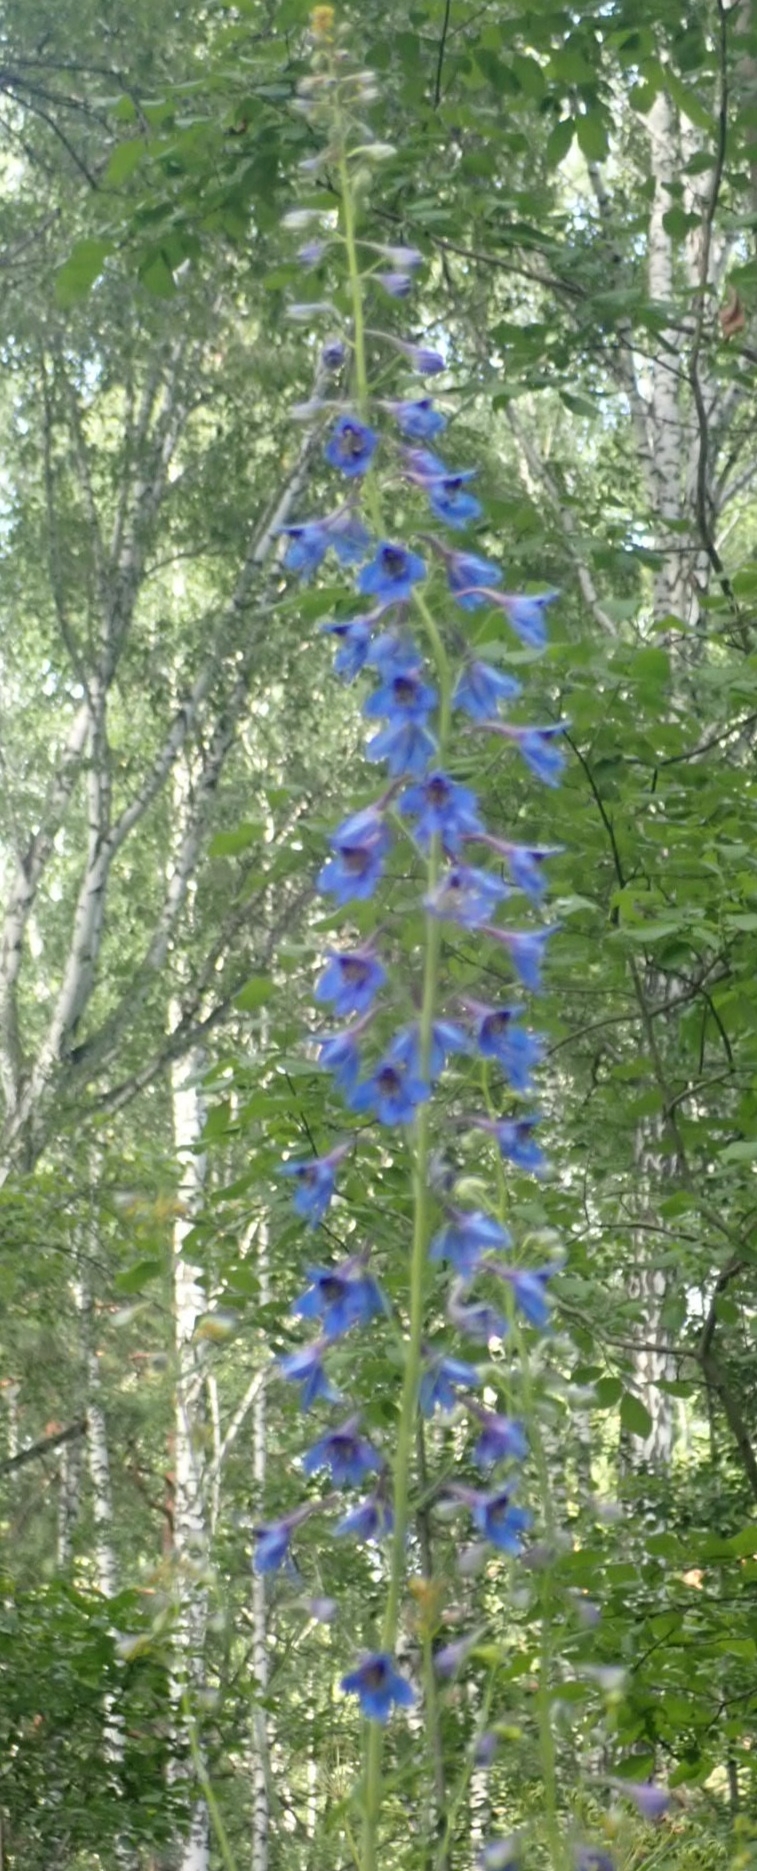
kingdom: Plantae
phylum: Tracheophyta
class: Magnoliopsida
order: Ranunculales
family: Ranunculaceae
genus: Delphinium
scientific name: Delphinium elatum
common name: Candle larkspur
